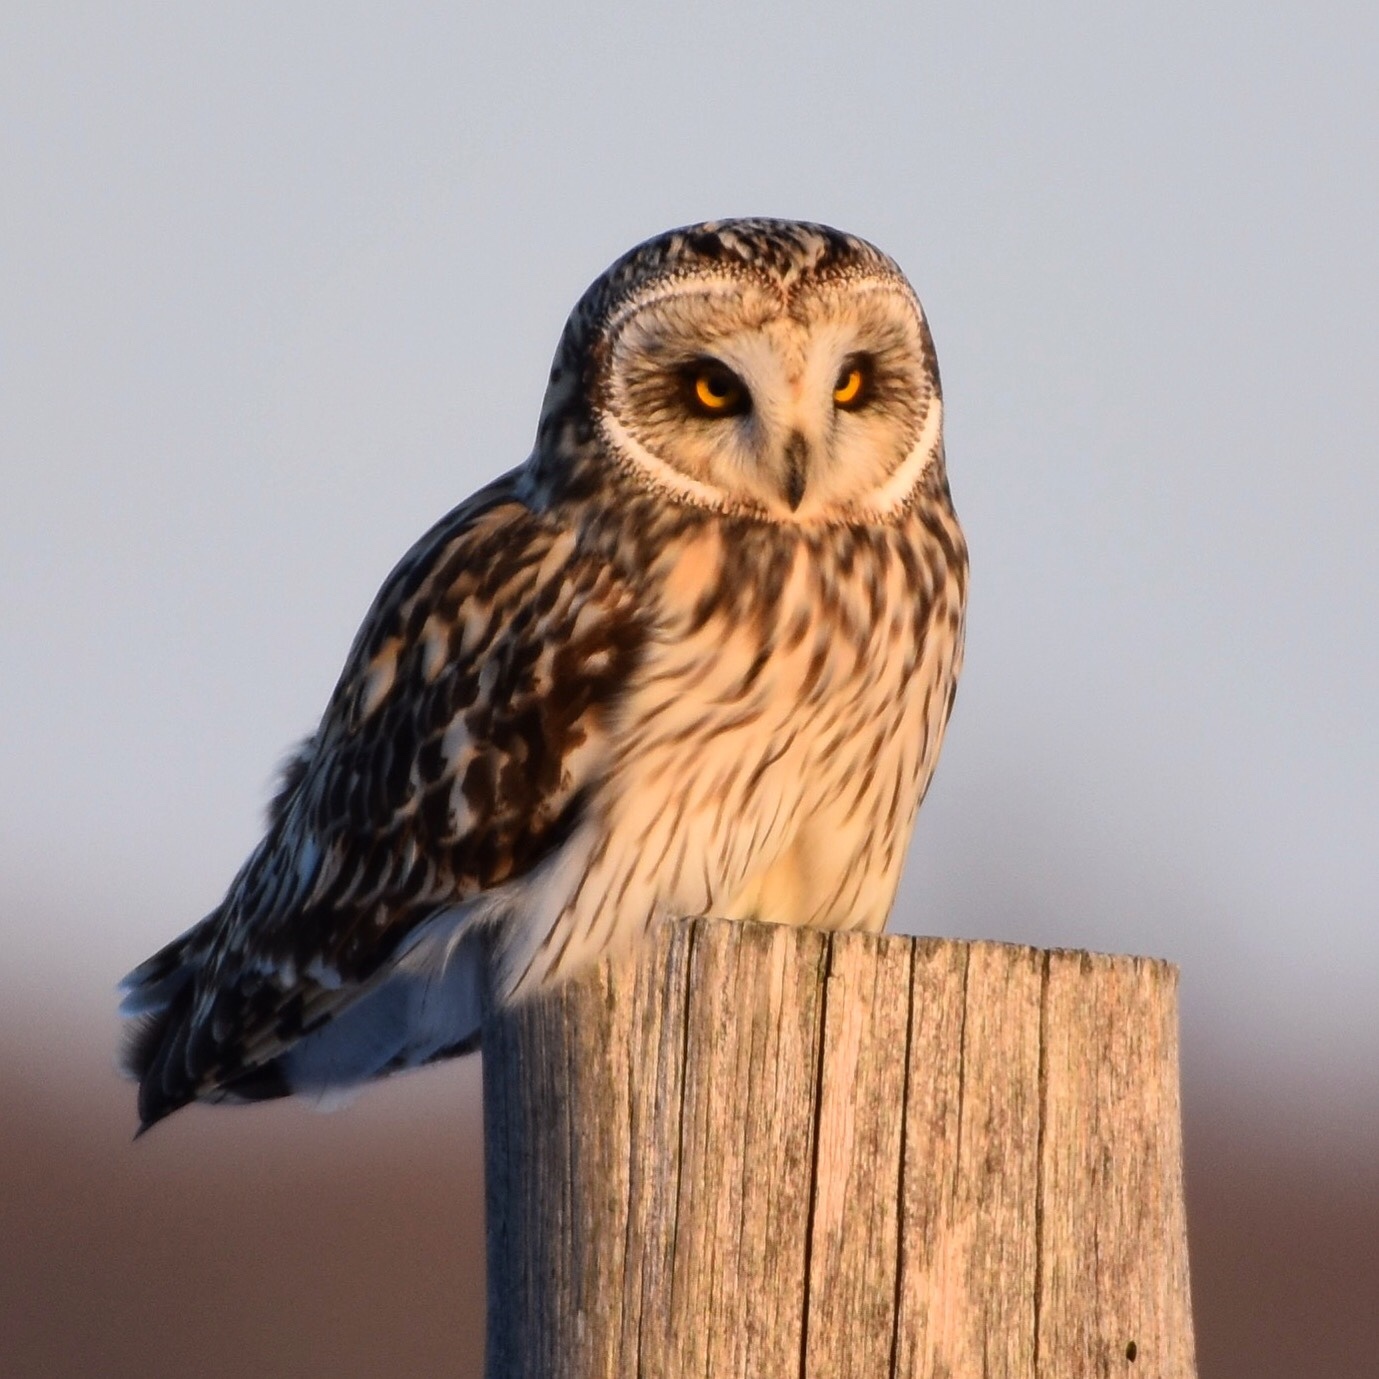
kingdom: Animalia
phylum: Chordata
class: Aves
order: Strigiformes
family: Strigidae
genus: Asio
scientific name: Asio flammeus
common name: Short-eared owl
